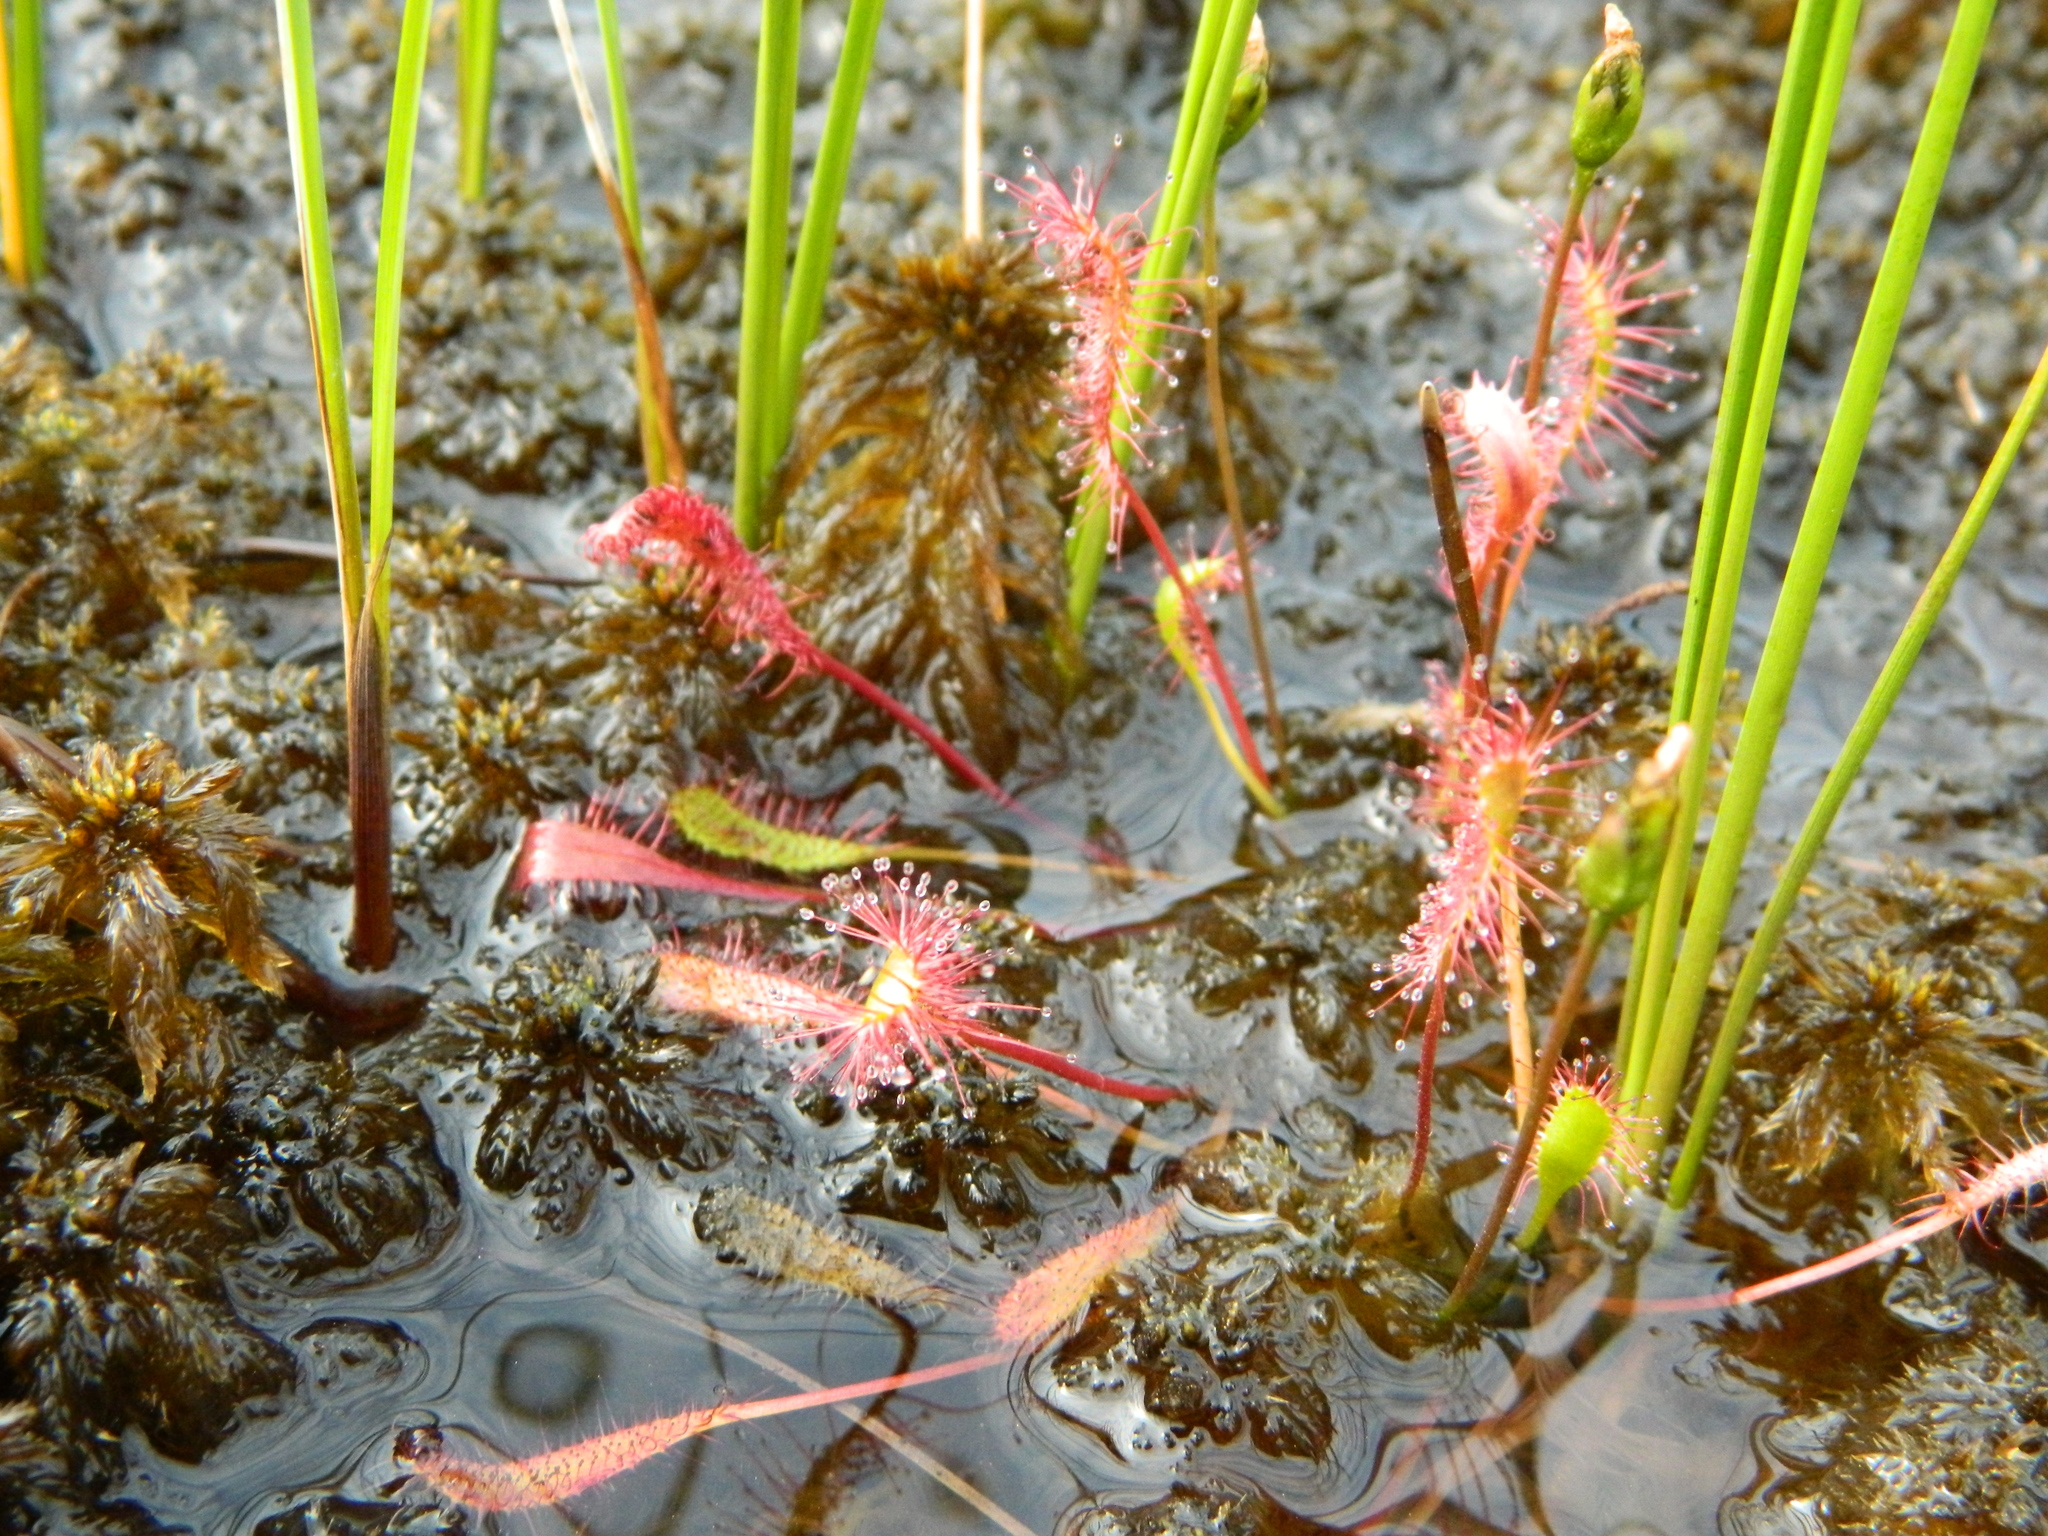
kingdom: Plantae
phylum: Tracheophyta
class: Magnoliopsida
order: Caryophyllales
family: Droseraceae
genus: Drosera
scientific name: Drosera anglica
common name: Great sundew
